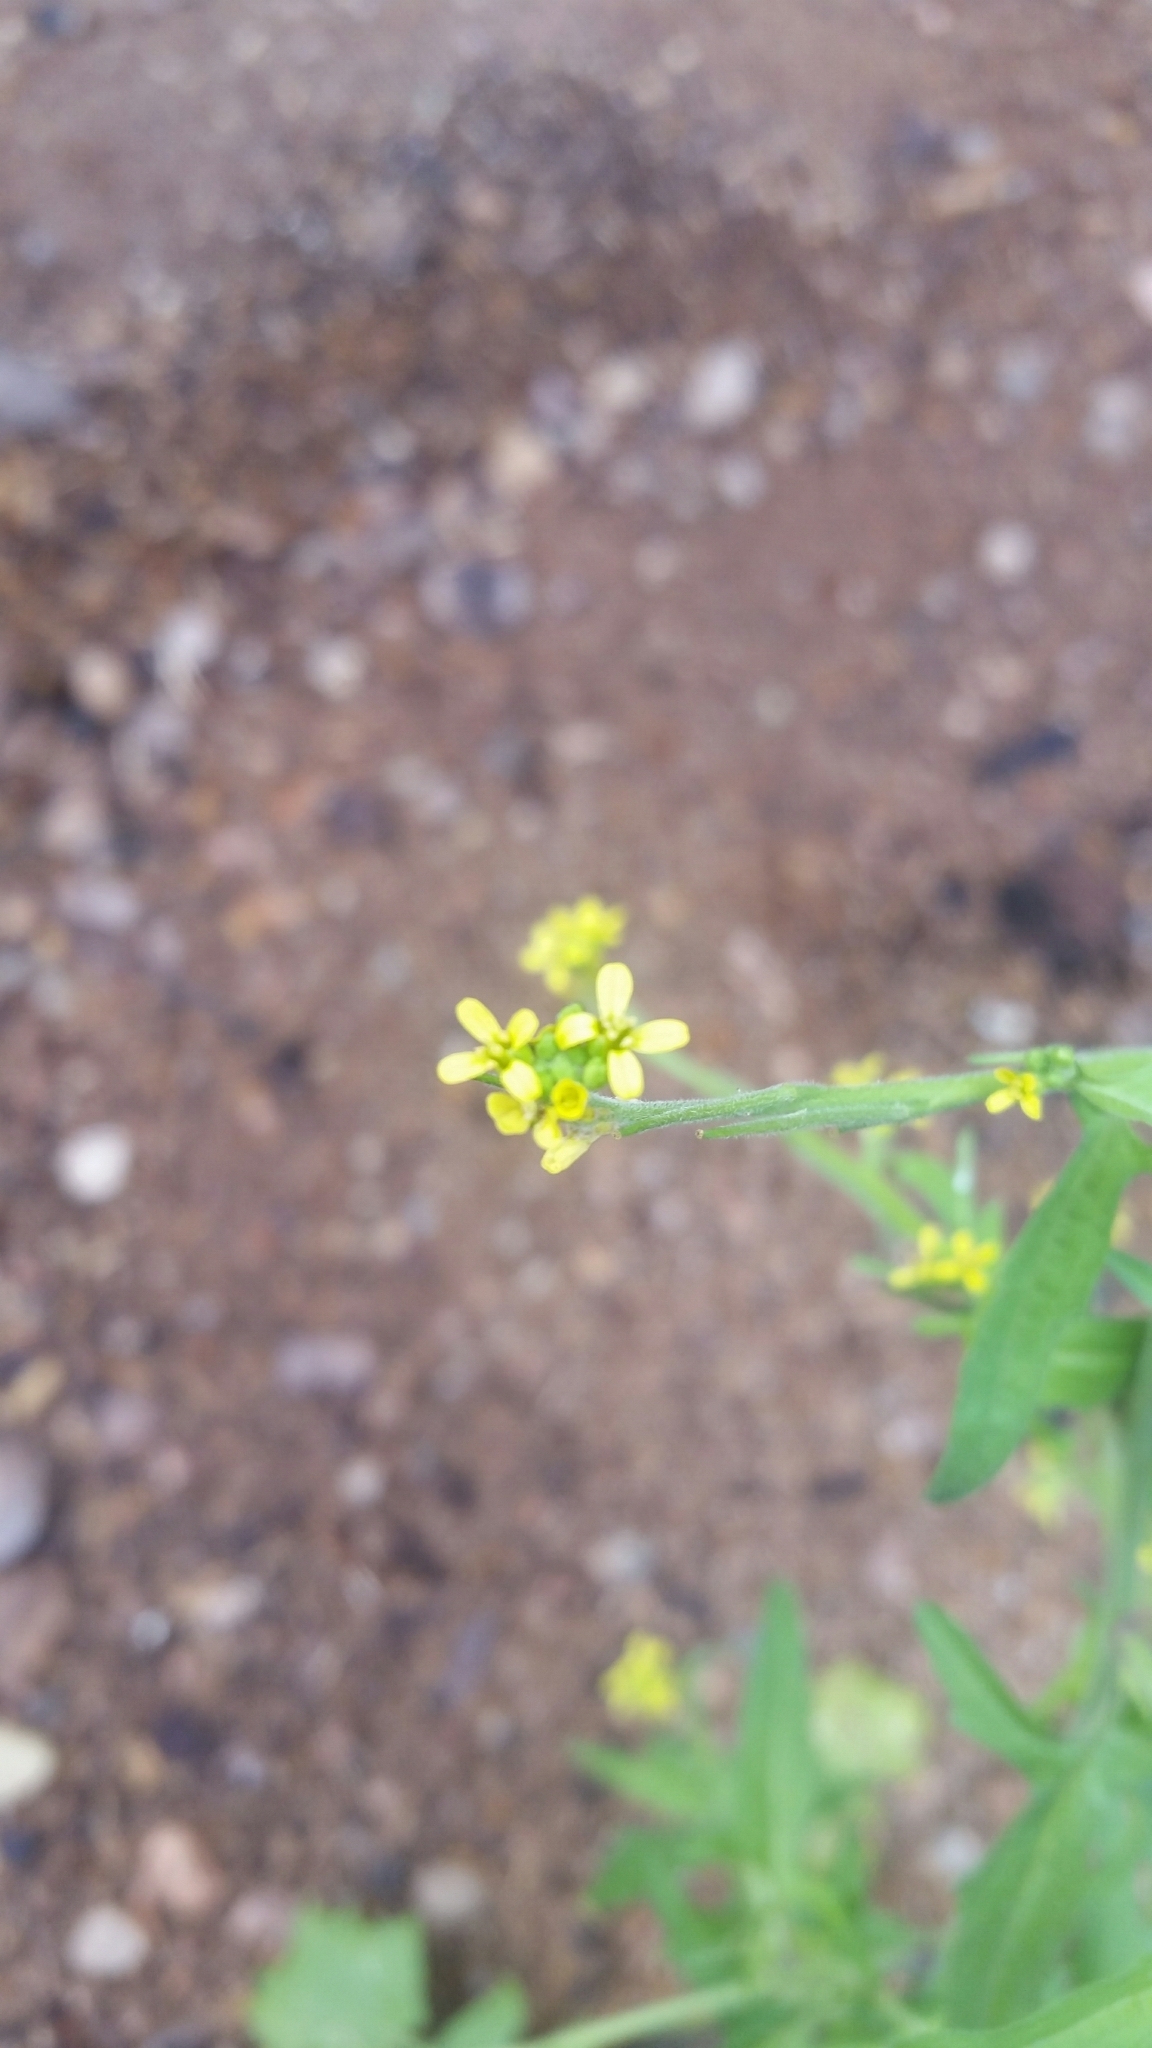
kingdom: Plantae
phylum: Tracheophyta
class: Magnoliopsida
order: Brassicales
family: Brassicaceae
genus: Sisymbrium
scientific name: Sisymbrium officinale
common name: Hedge mustard
